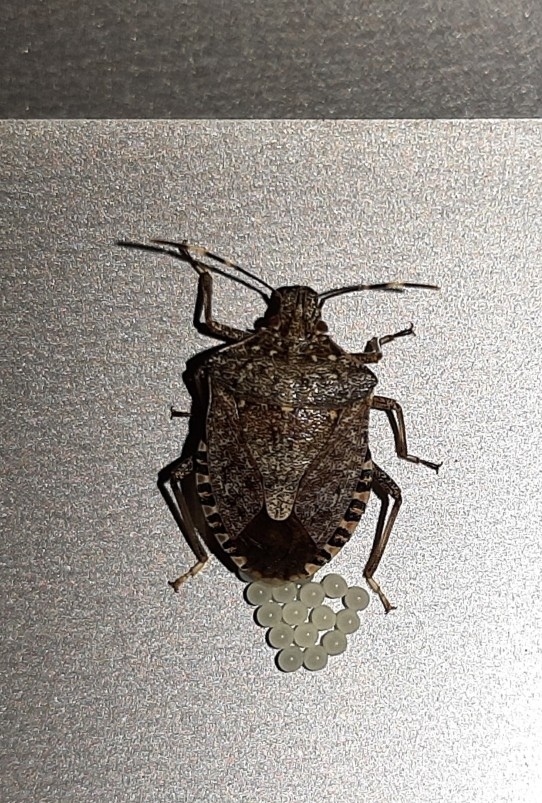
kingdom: Animalia
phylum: Arthropoda
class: Insecta
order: Hemiptera
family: Pentatomidae
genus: Halyomorpha
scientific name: Halyomorpha halys
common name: Brown marmorated stink bug
